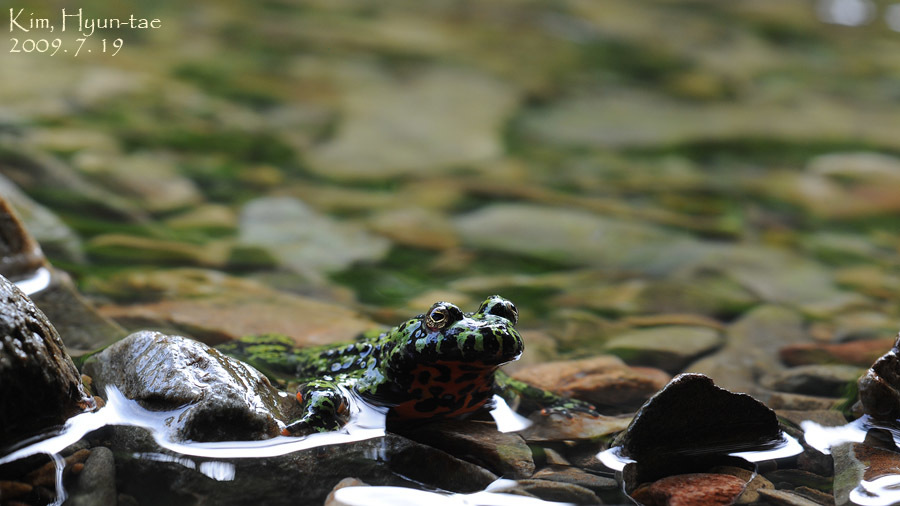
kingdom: Animalia
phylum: Chordata
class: Amphibia
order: Anura
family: Bombinatoridae
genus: Bombina
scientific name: Bombina orientalis
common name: Oriental firebelly toad
